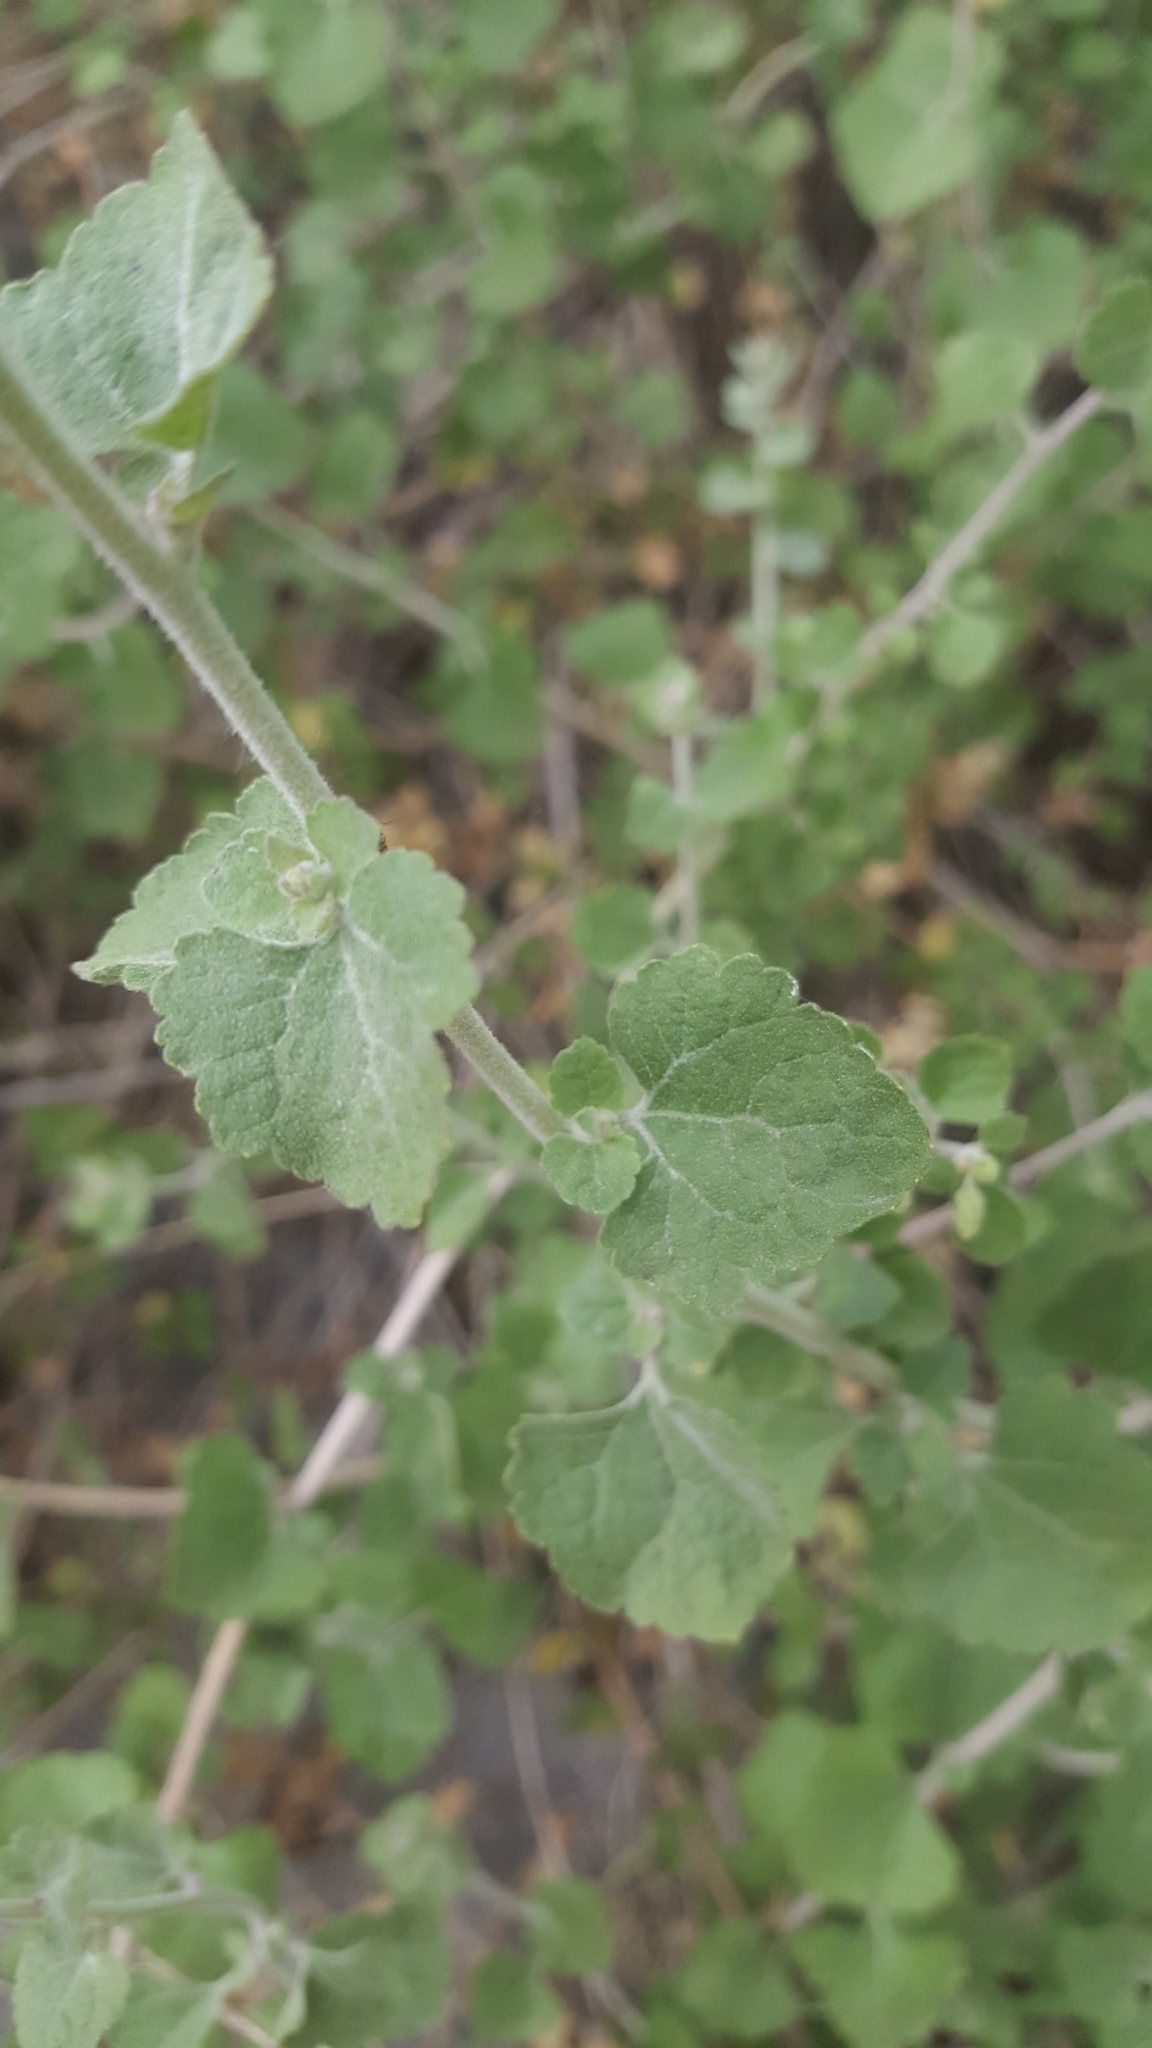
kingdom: Plantae
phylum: Tracheophyta
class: Magnoliopsida
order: Asterales
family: Asteraceae
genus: Brickellia
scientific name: Brickellia californica
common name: California brickellbush
